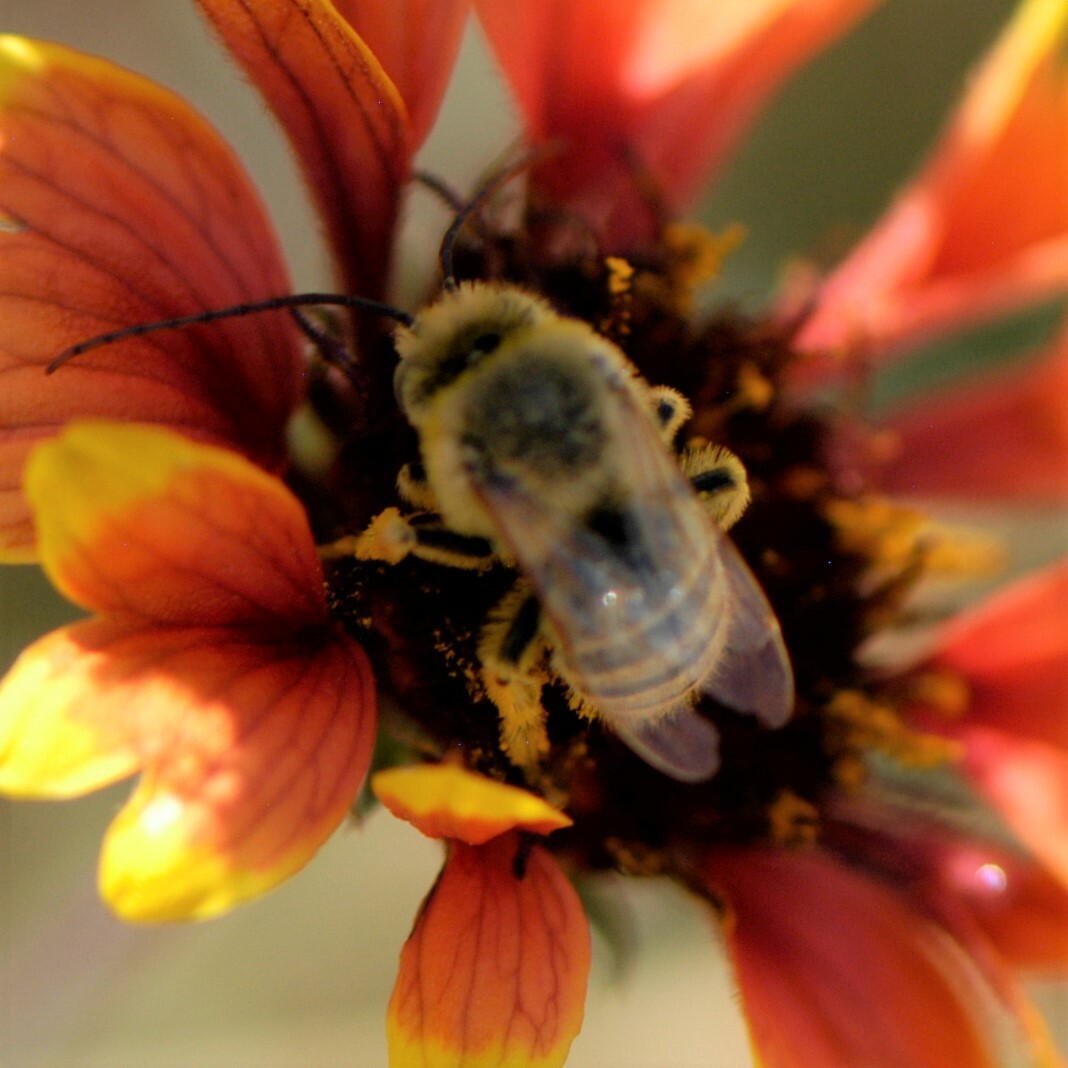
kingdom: Animalia
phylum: Arthropoda
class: Insecta
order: Hymenoptera
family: Apidae
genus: Melissodes
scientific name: Melissodes
